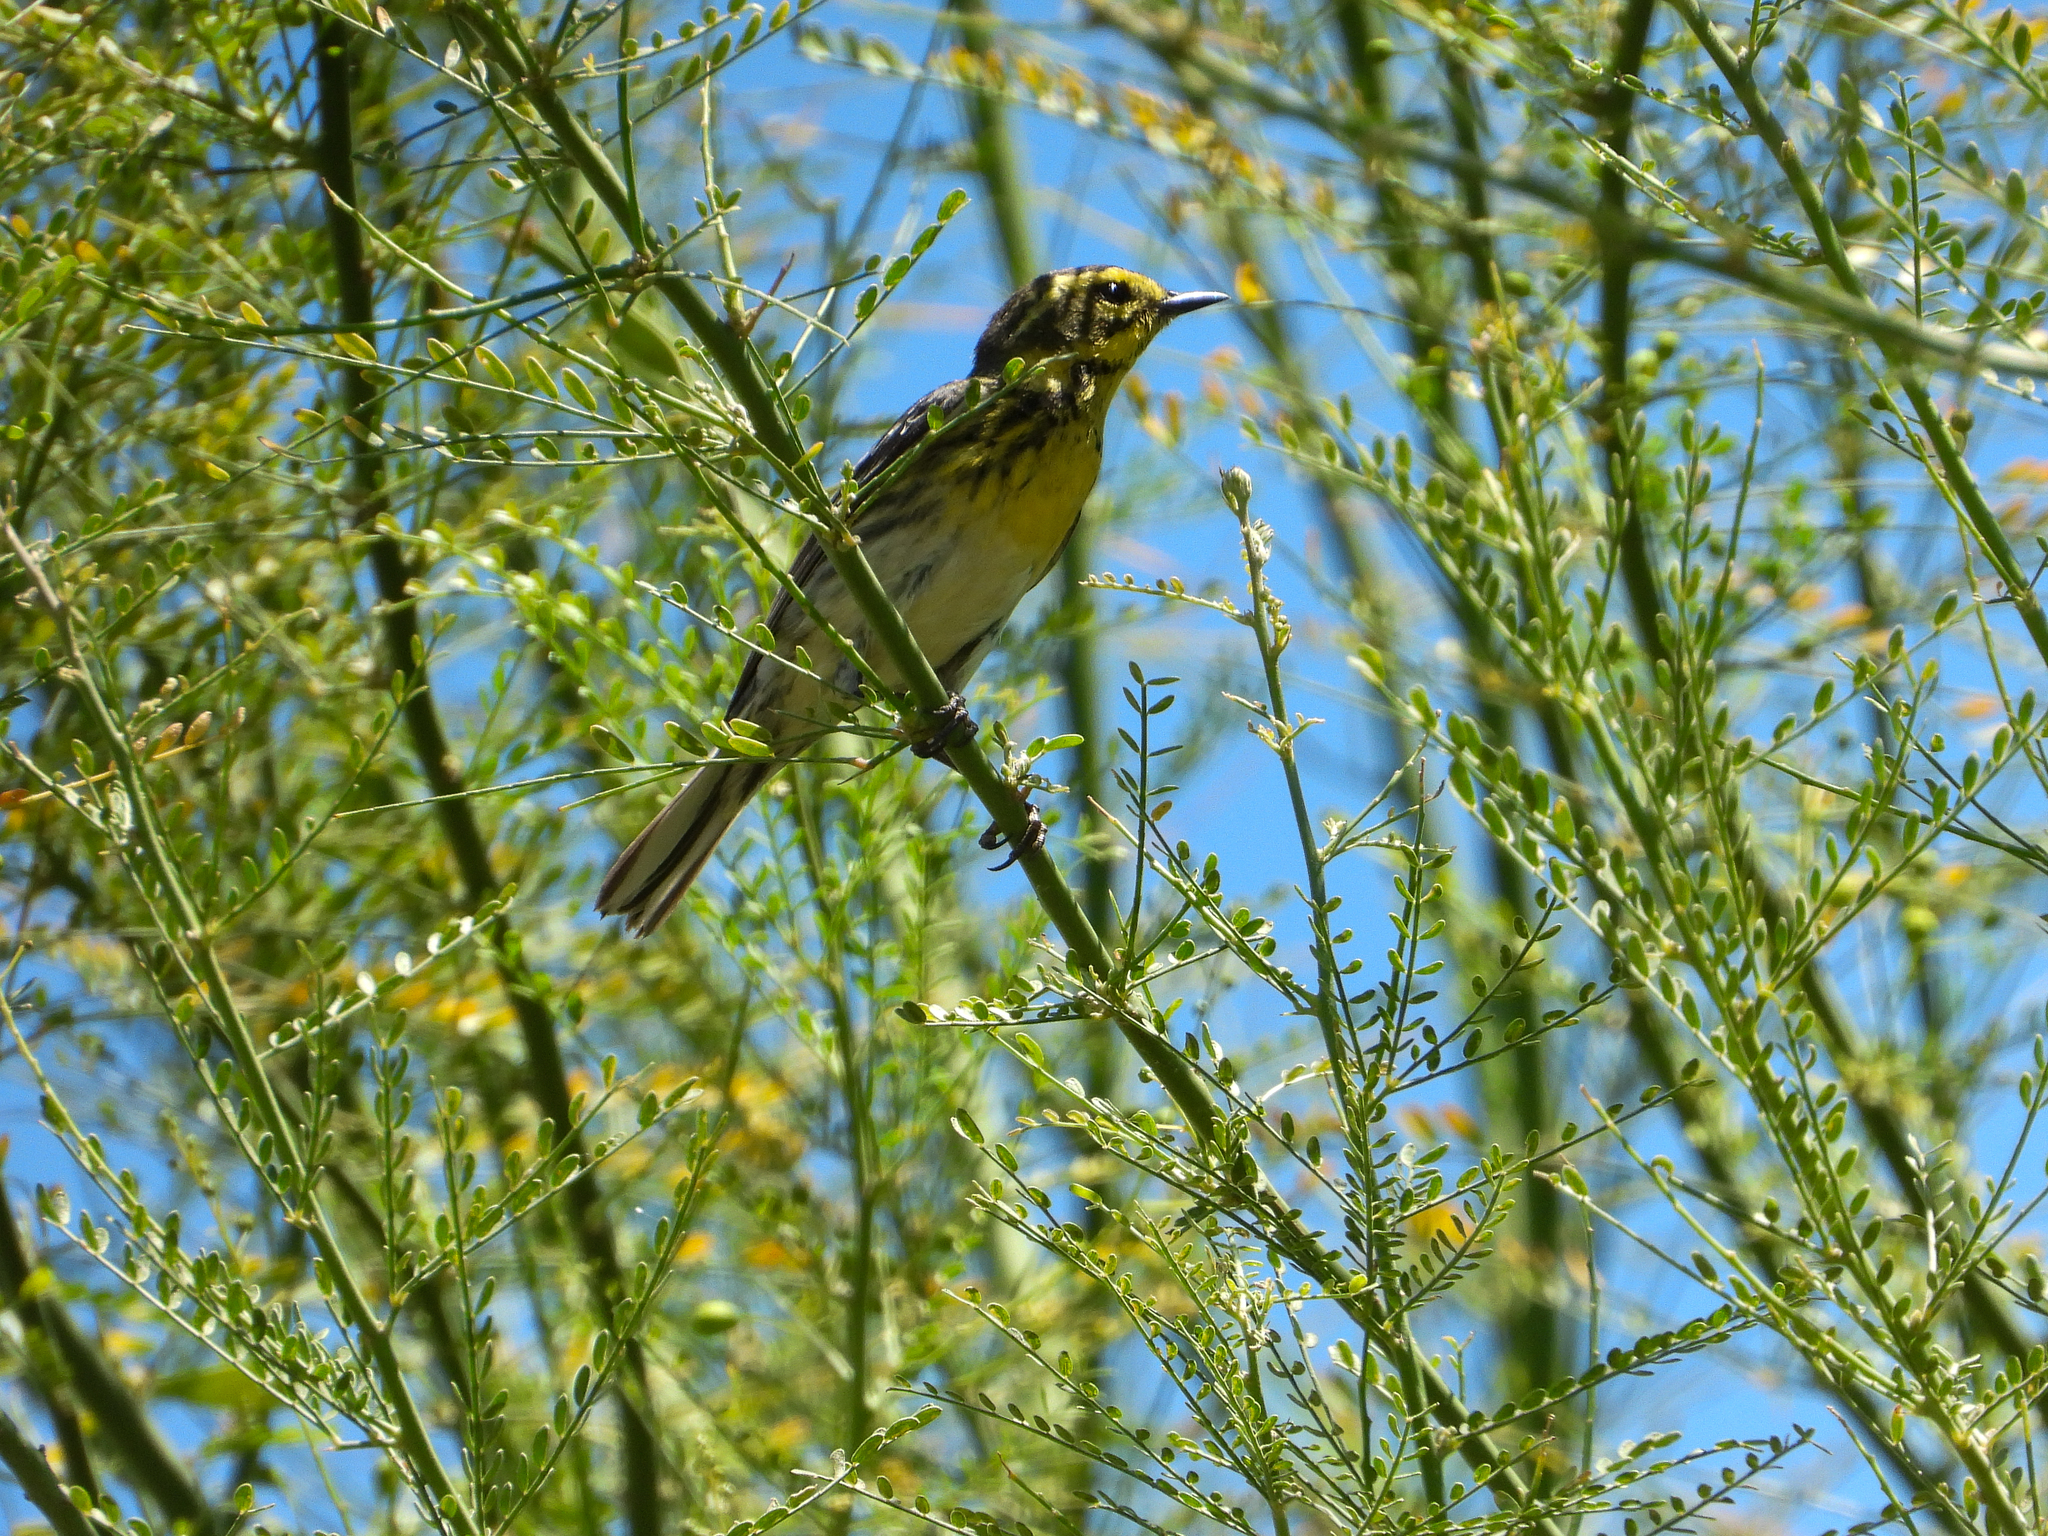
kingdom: Animalia
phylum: Chordata
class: Aves
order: Passeriformes
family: Parulidae
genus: Setophaga
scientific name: Setophaga townsendi
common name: Townsend's warbler
